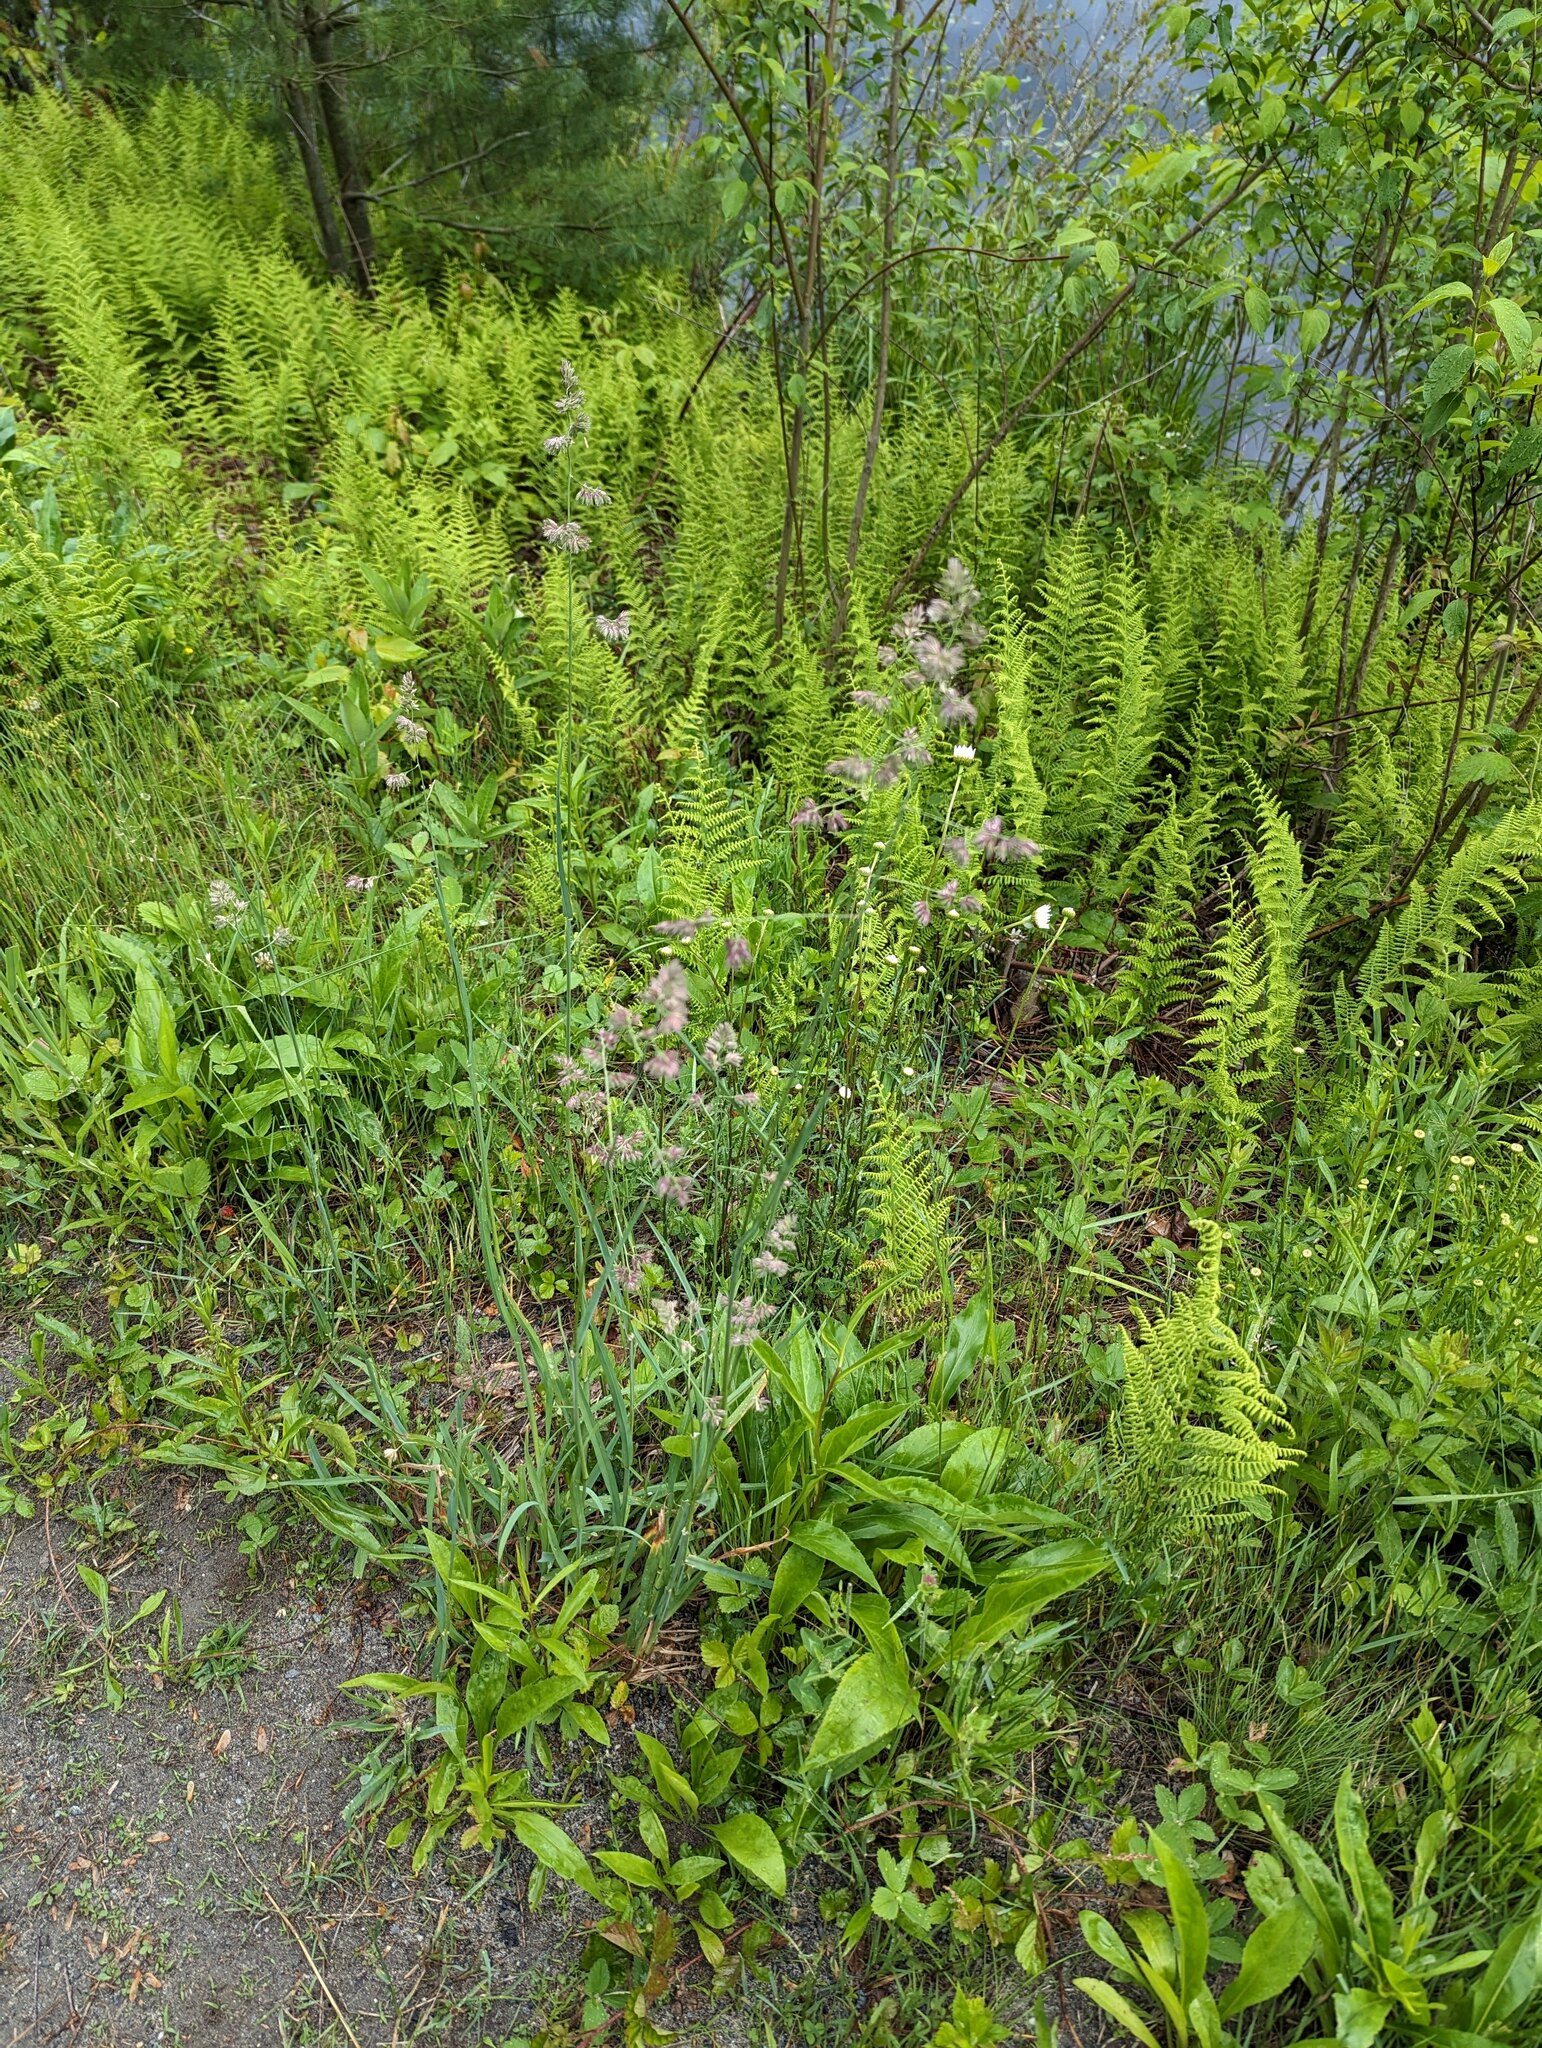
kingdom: Plantae
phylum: Tracheophyta
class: Liliopsida
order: Poales
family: Poaceae
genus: Dactylis
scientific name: Dactylis glomerata
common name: Orchardgrass
